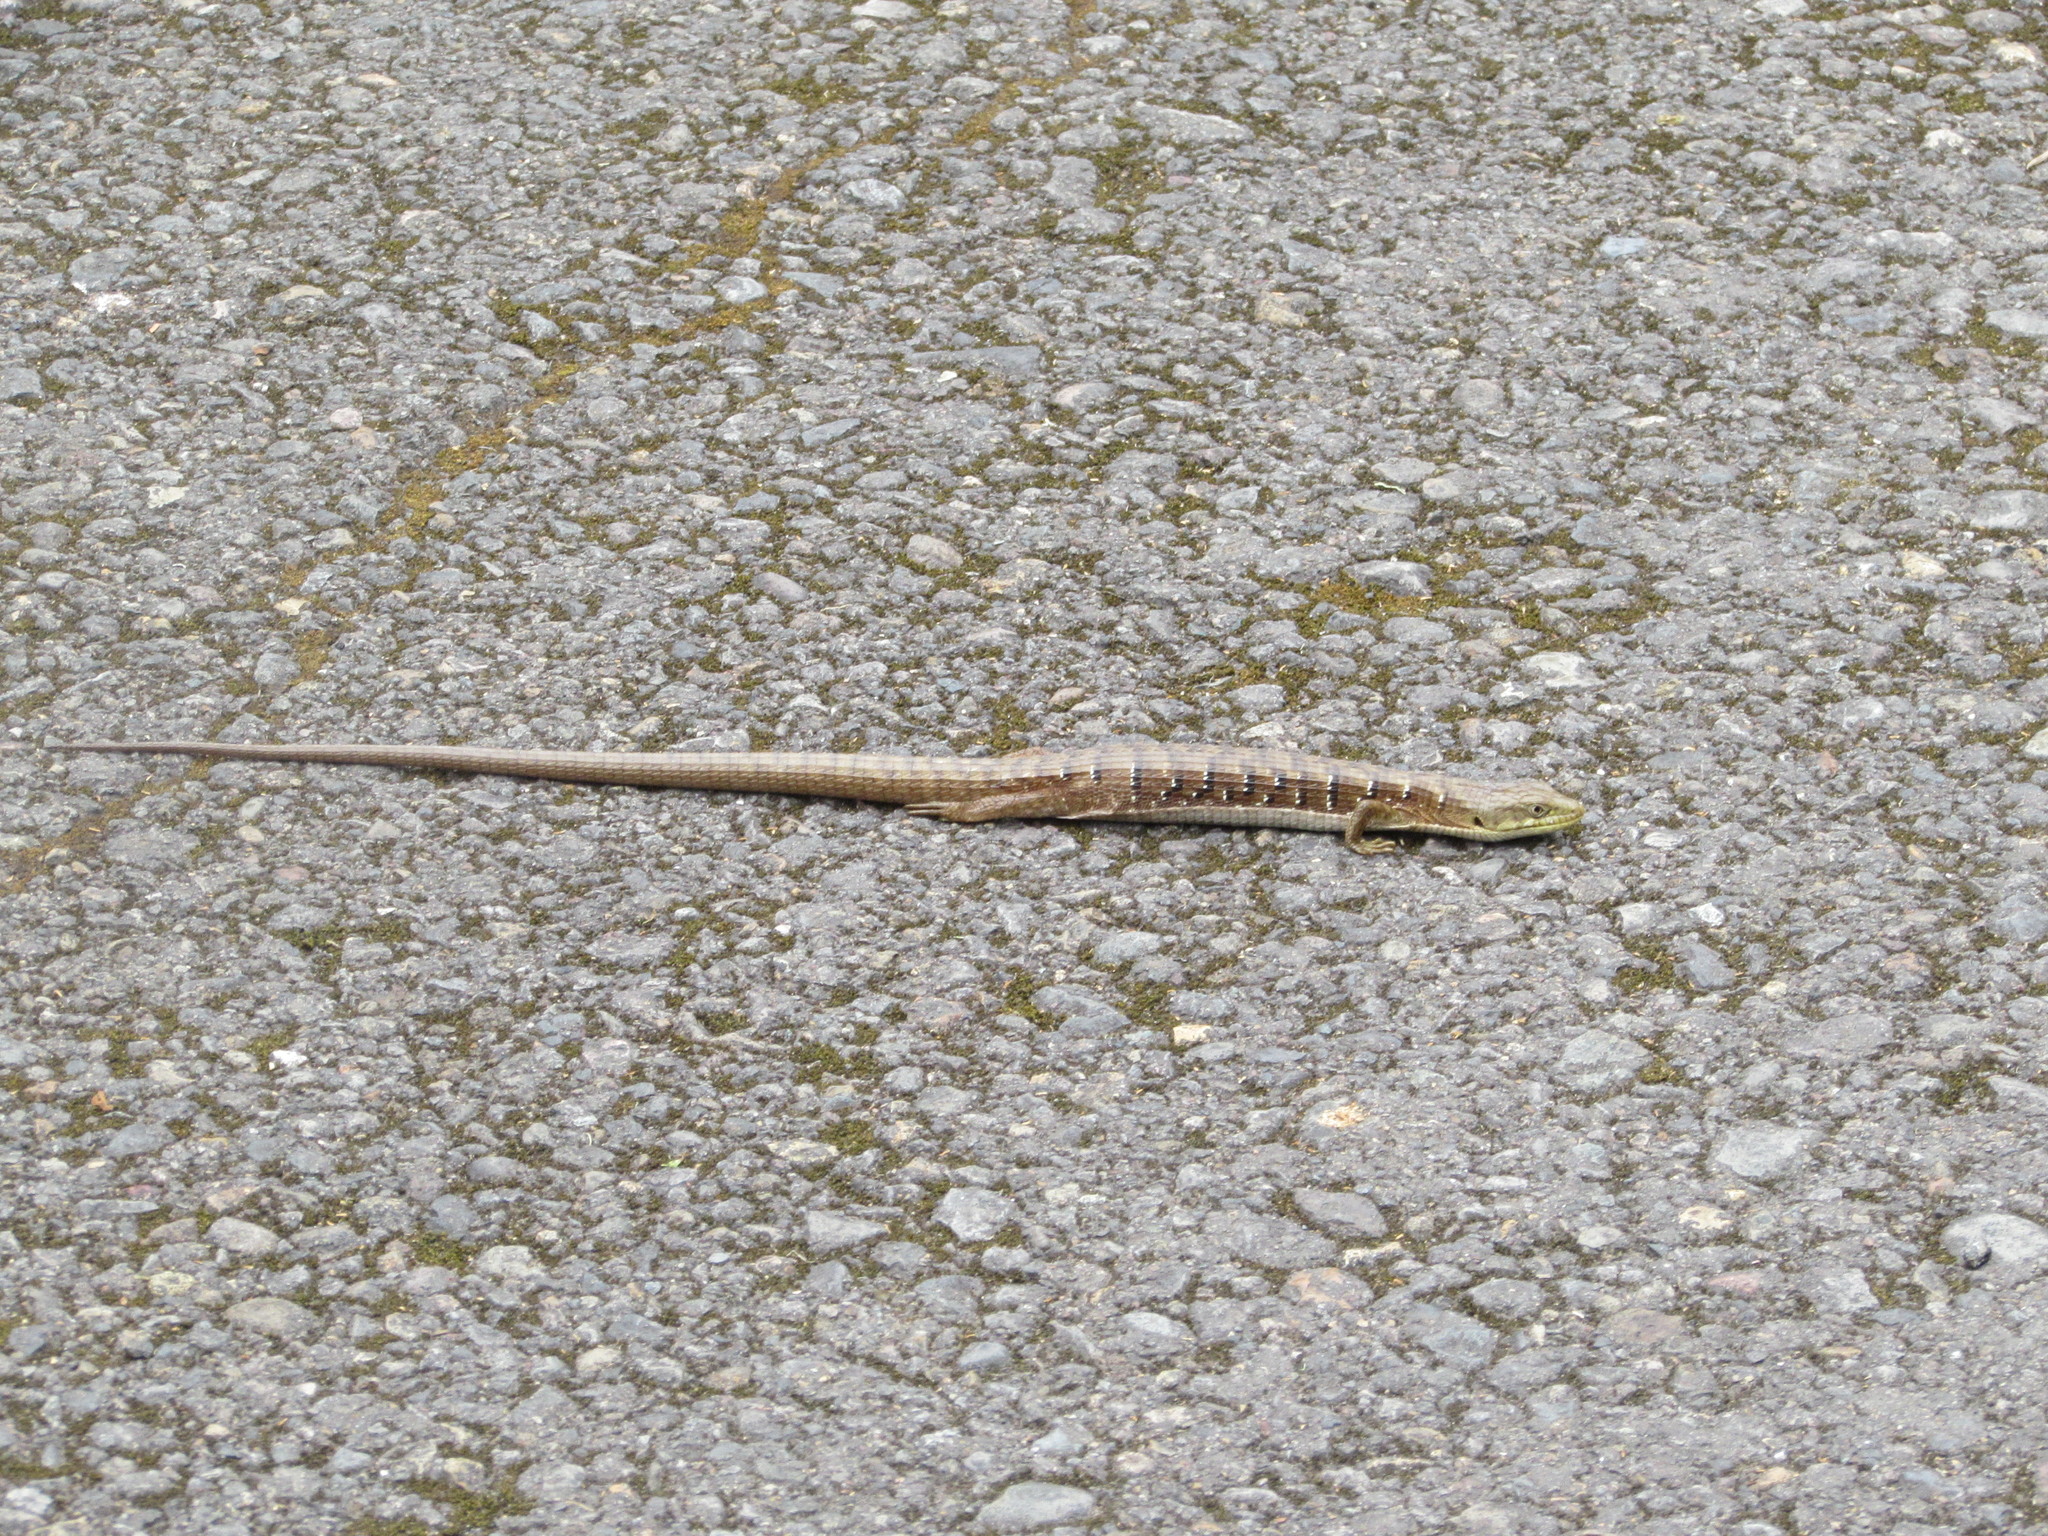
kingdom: Animalia
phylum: Chordata
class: Squamata
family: Anguidae
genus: Elgaria
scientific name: Elgaria multicarinata
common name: Southern alligator lizard
